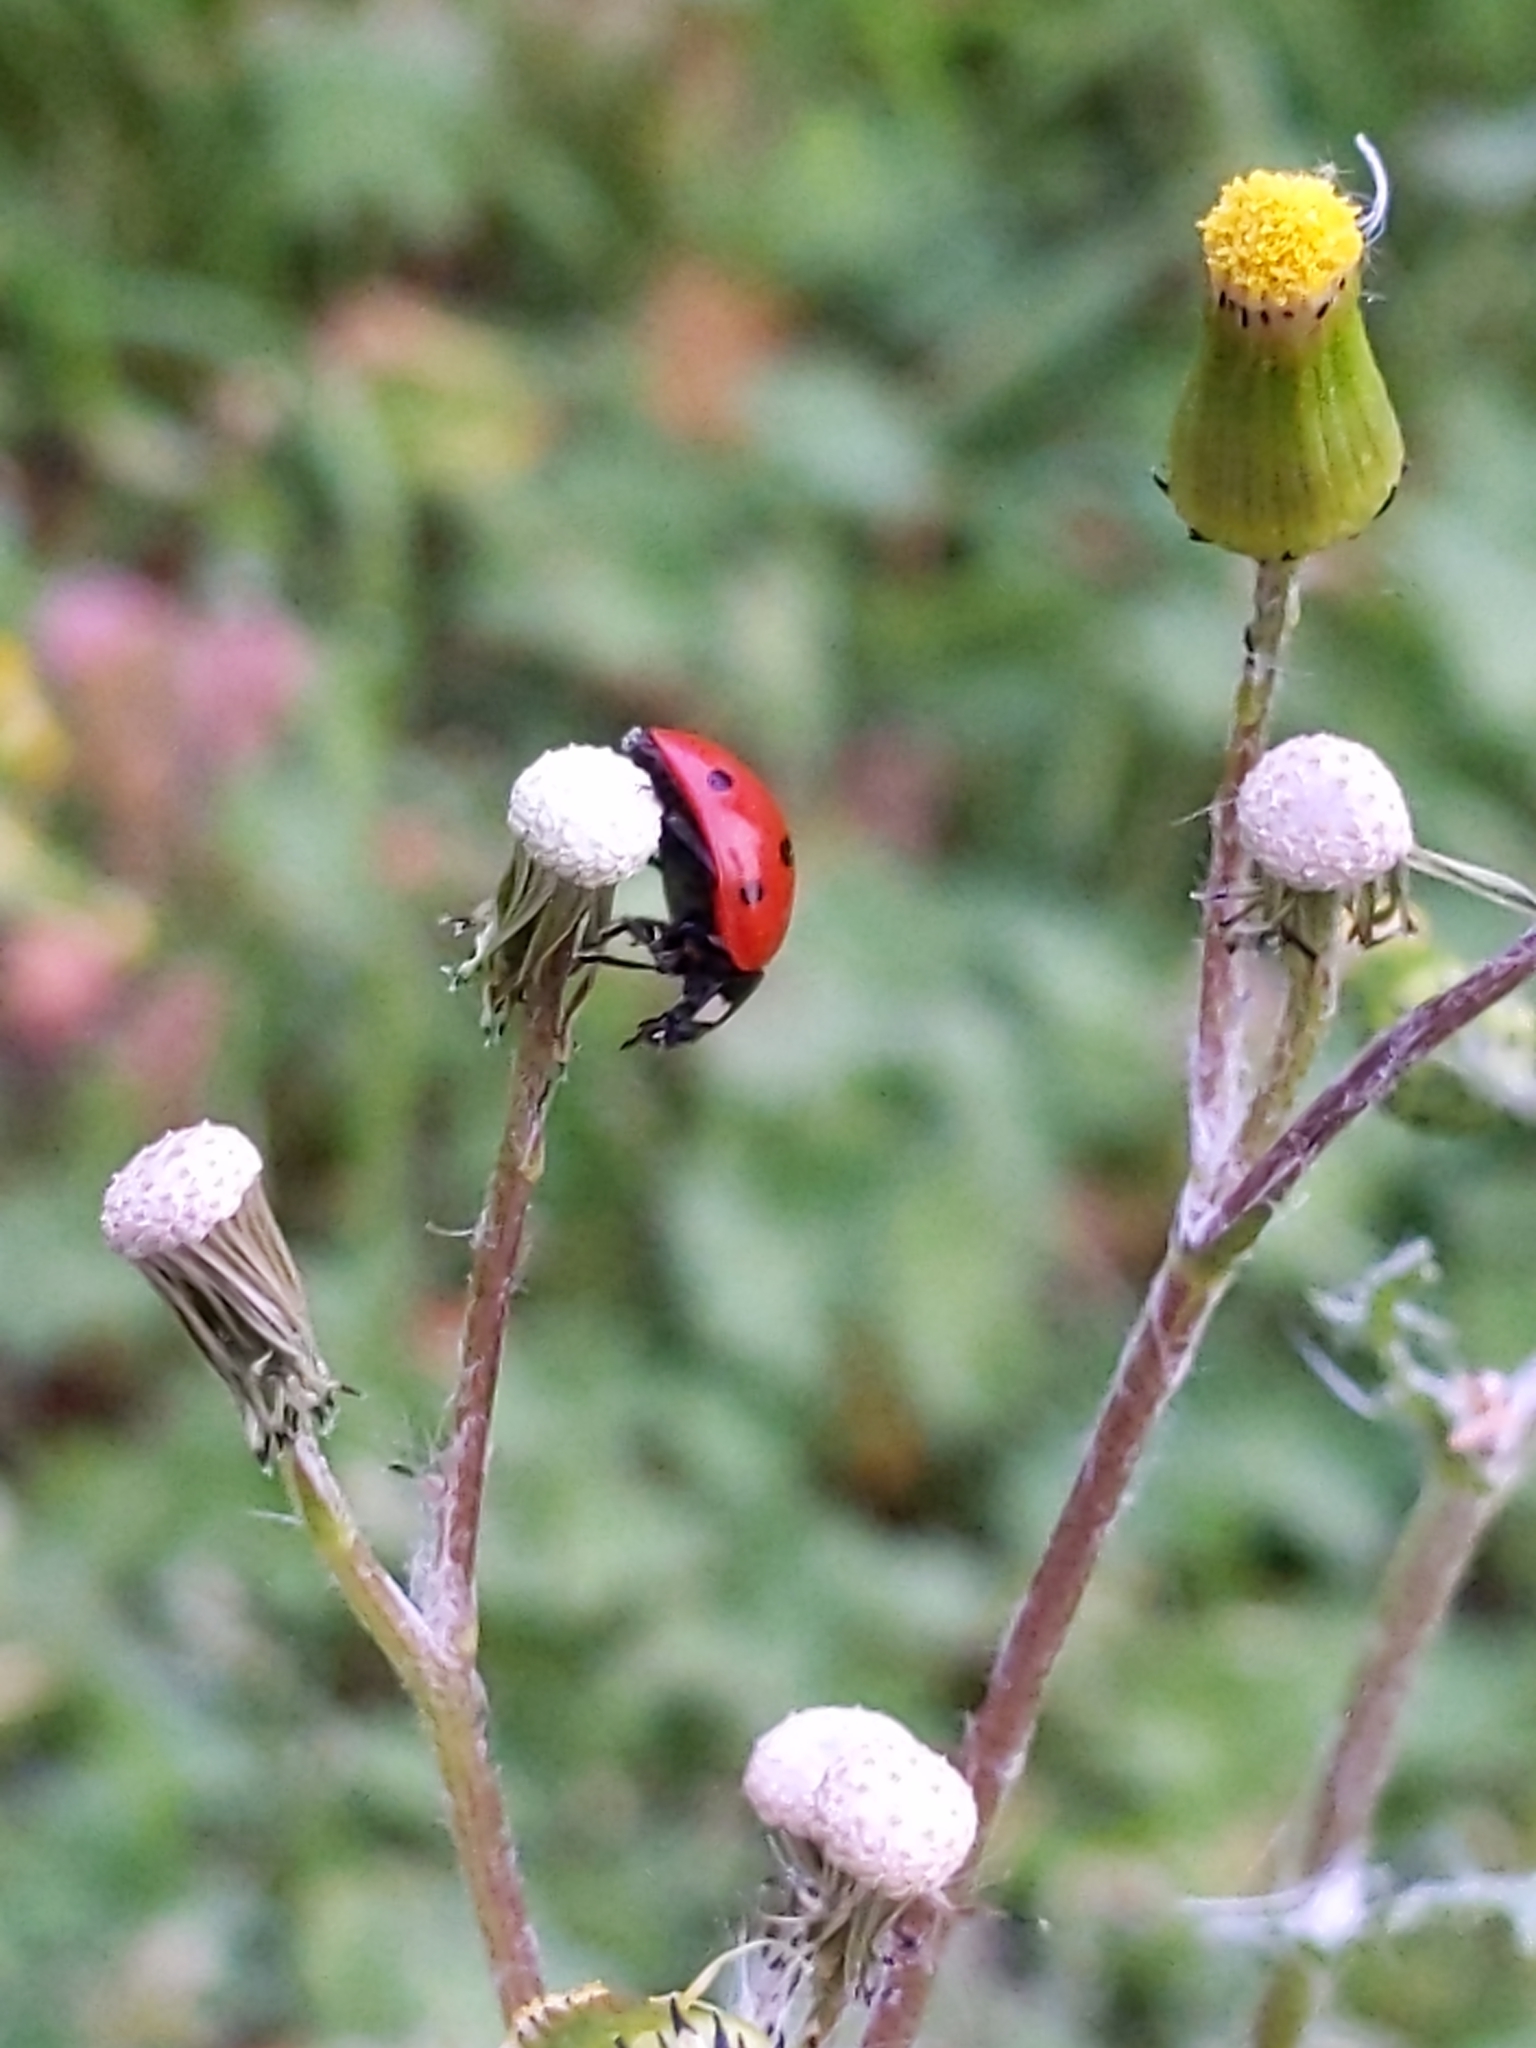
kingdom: Animalia
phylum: Arthropoda
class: Insecta
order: Coleoptera
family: Coccinellidae
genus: Coccinella
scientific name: Coccinella septempunctata
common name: Sevenspotted lady beetle
